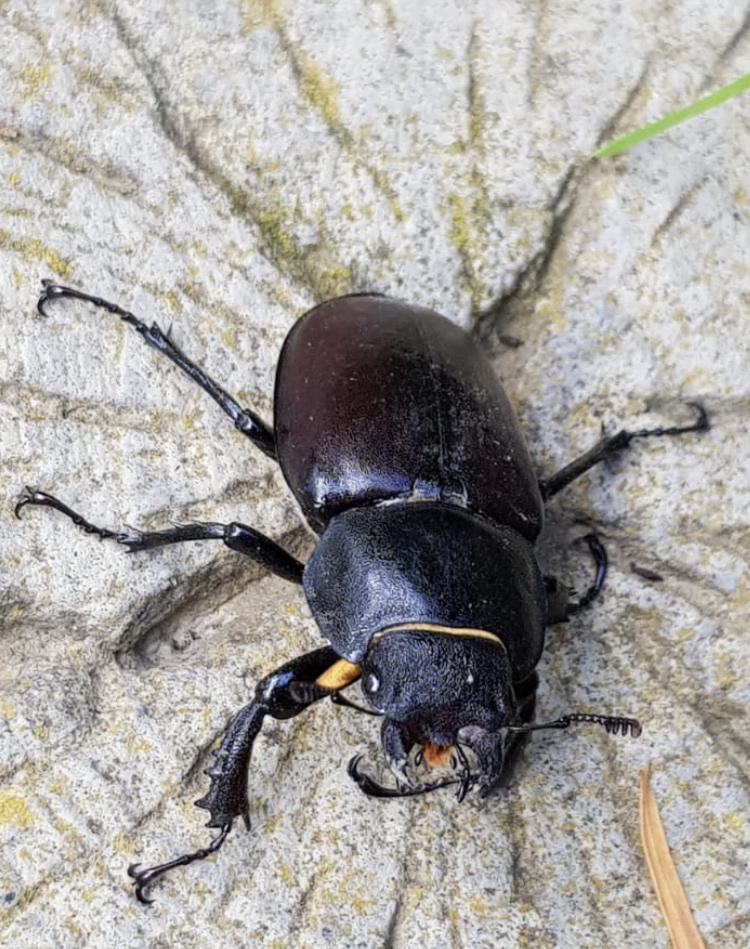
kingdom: Animalia
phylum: Arthropoda
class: Insecta
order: Coleoptera
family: Lucanidae
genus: Lucanus
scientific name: Lucanus cervus
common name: Stag beetle
